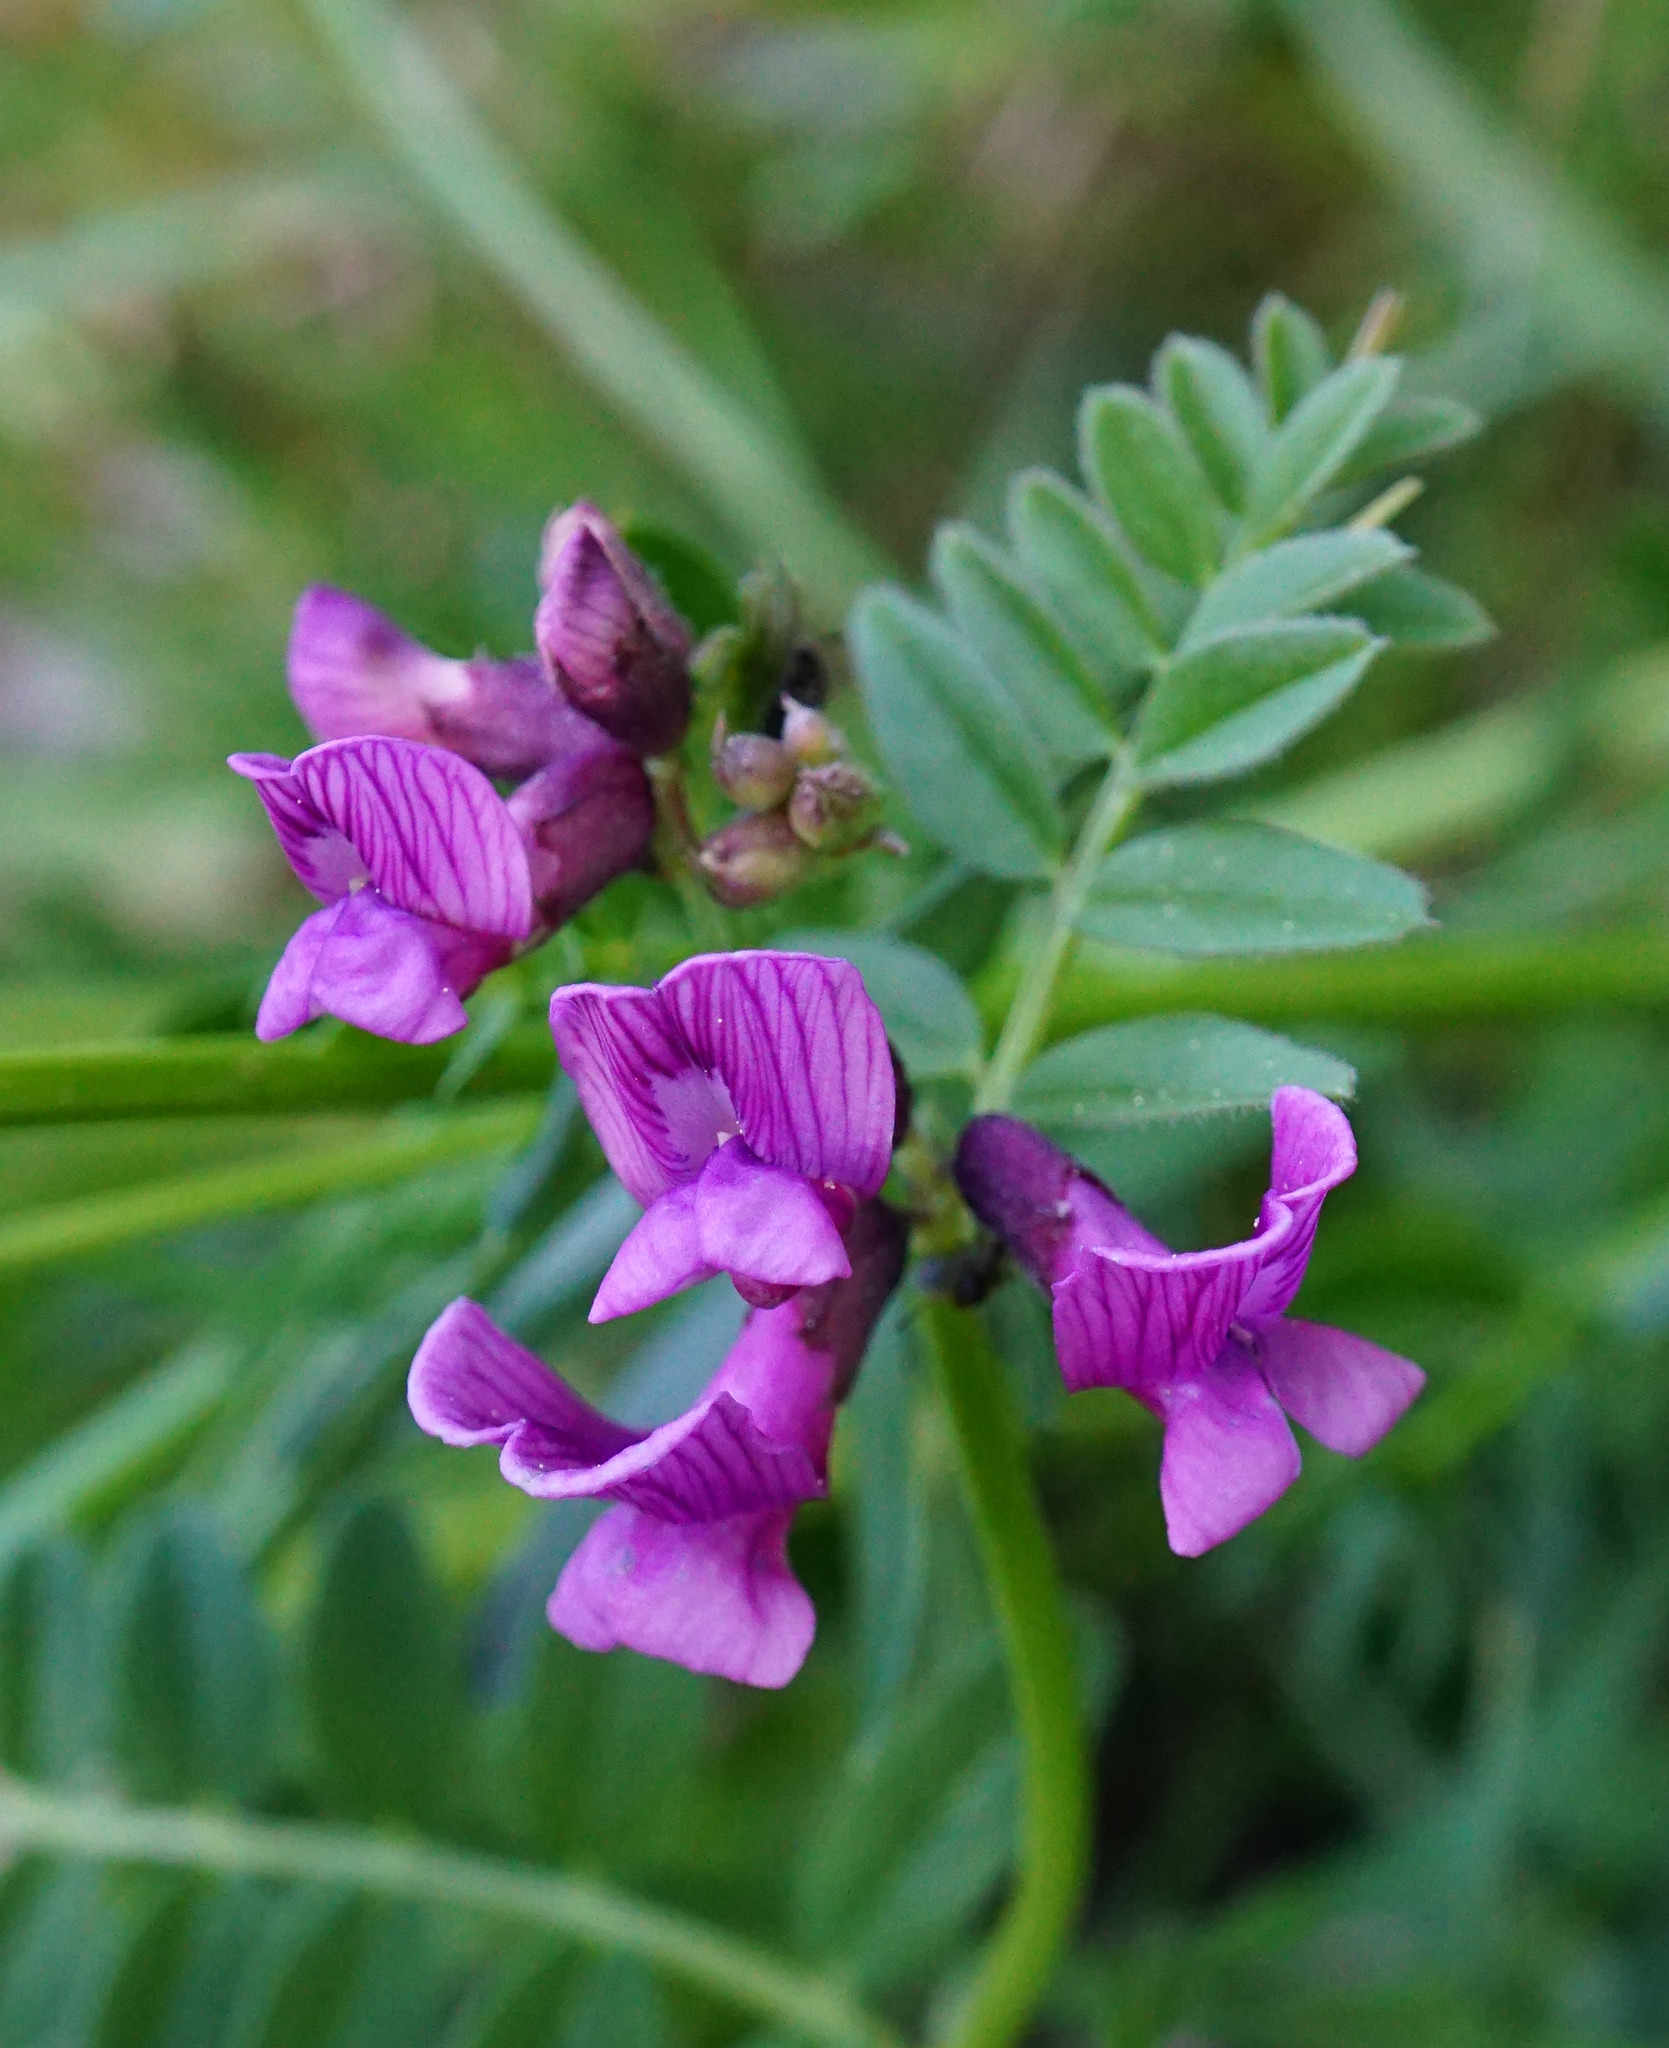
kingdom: Plantae
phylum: Tracheophyta
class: Magnoliopsida
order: Fabales
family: Fabaceae
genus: Vicia
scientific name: Vicia sepium
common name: Bush vetch
